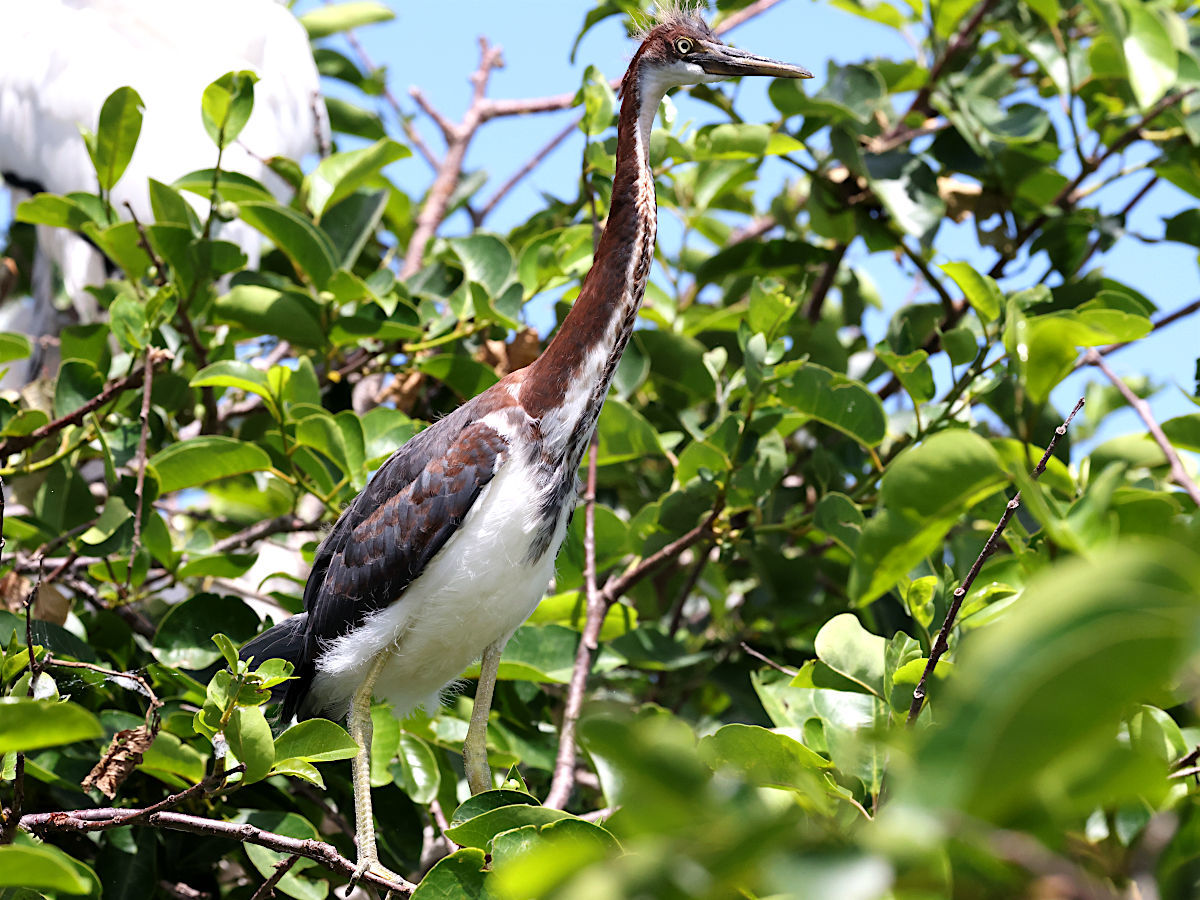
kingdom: Animalia
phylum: Chordata
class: Aves
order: Pelecaniformes
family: Ardeidae
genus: Egretta
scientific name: Egretta tricolor
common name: Tricolored heron
